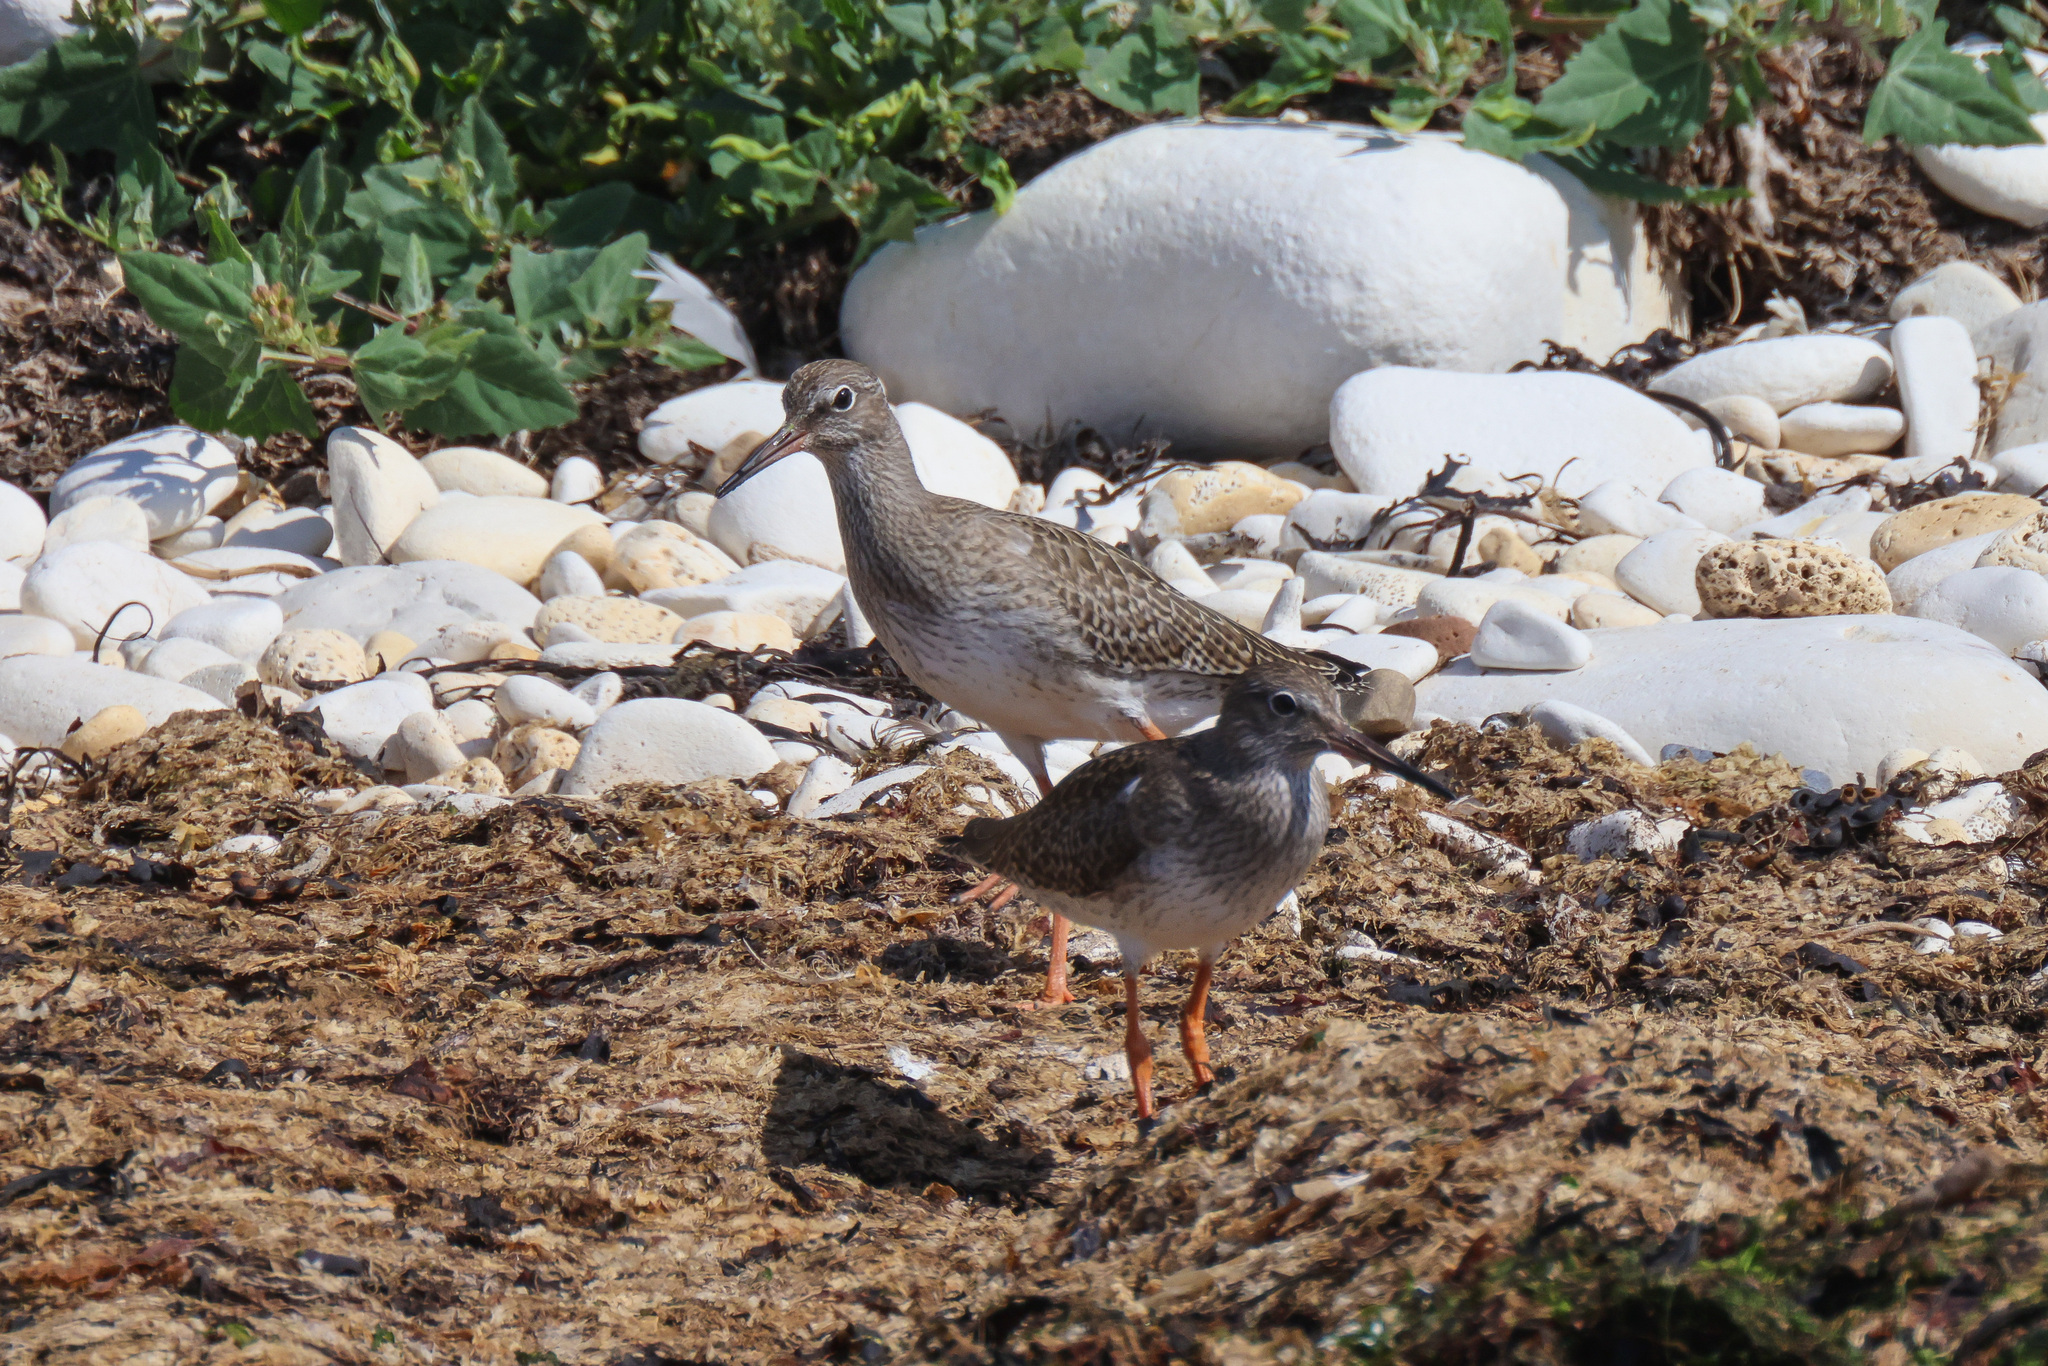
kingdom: Animalia
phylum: Chordata
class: Aves
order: Charadriiformes
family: Scolopacidae
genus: Tringa
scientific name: Tringa totanus
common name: Common redshank
